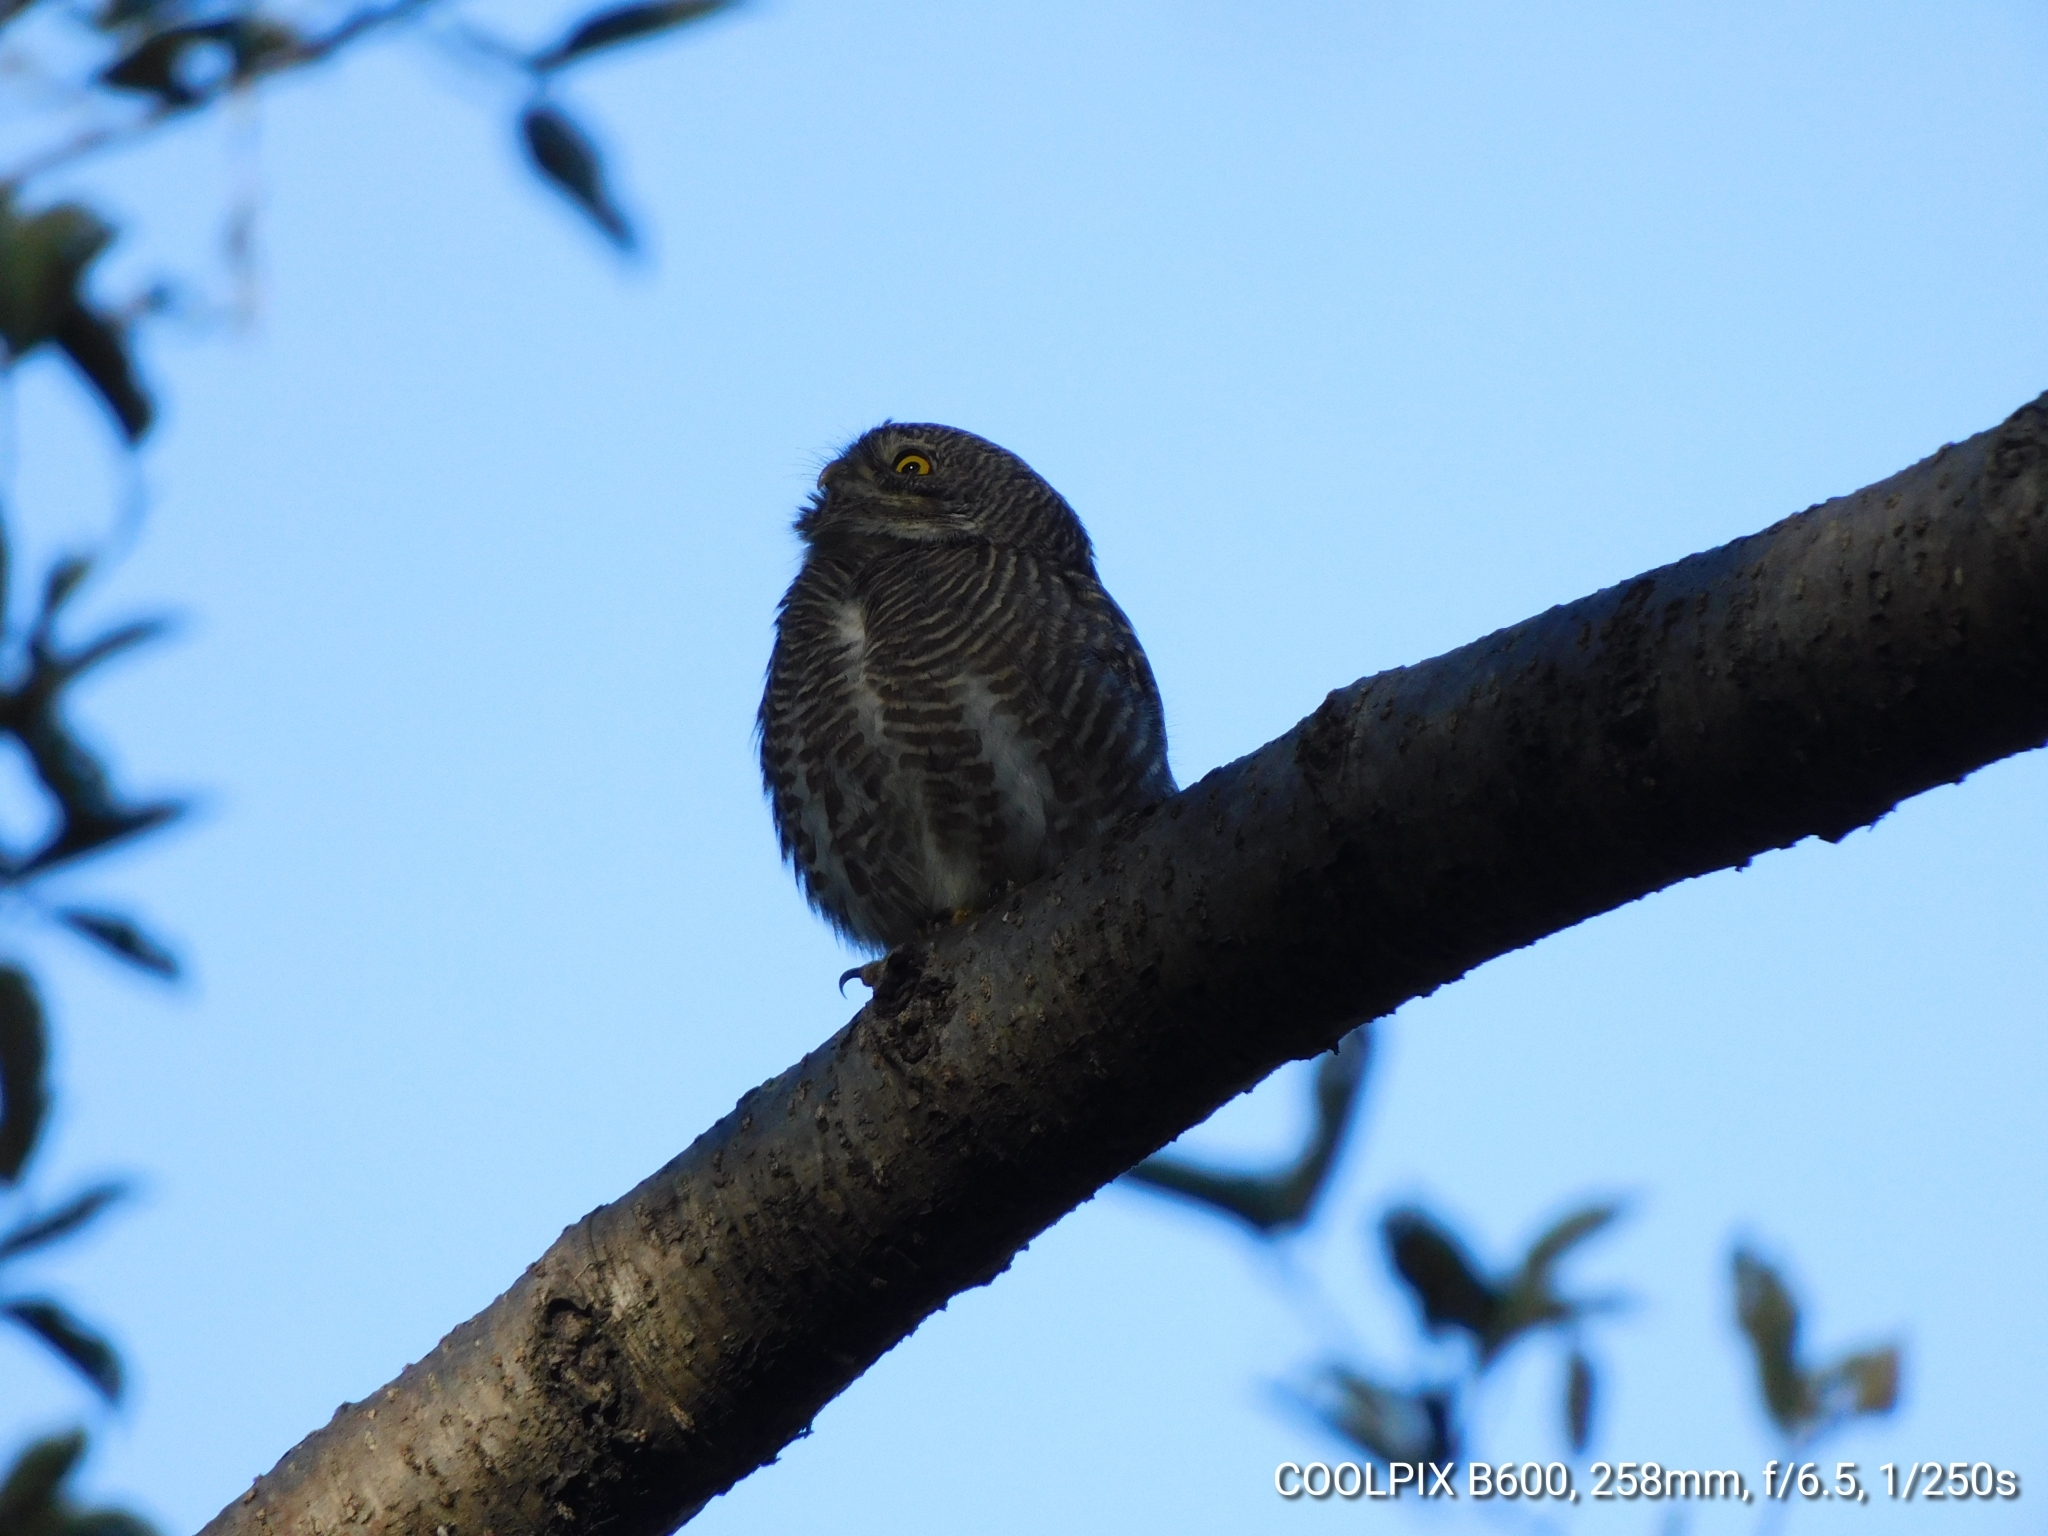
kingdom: Animalia
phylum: Chordata
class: Aves
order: Strigiformes
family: Strigidae
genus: Glaucidium
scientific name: Glaucidium cuculoides
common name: Asian barred owlet
